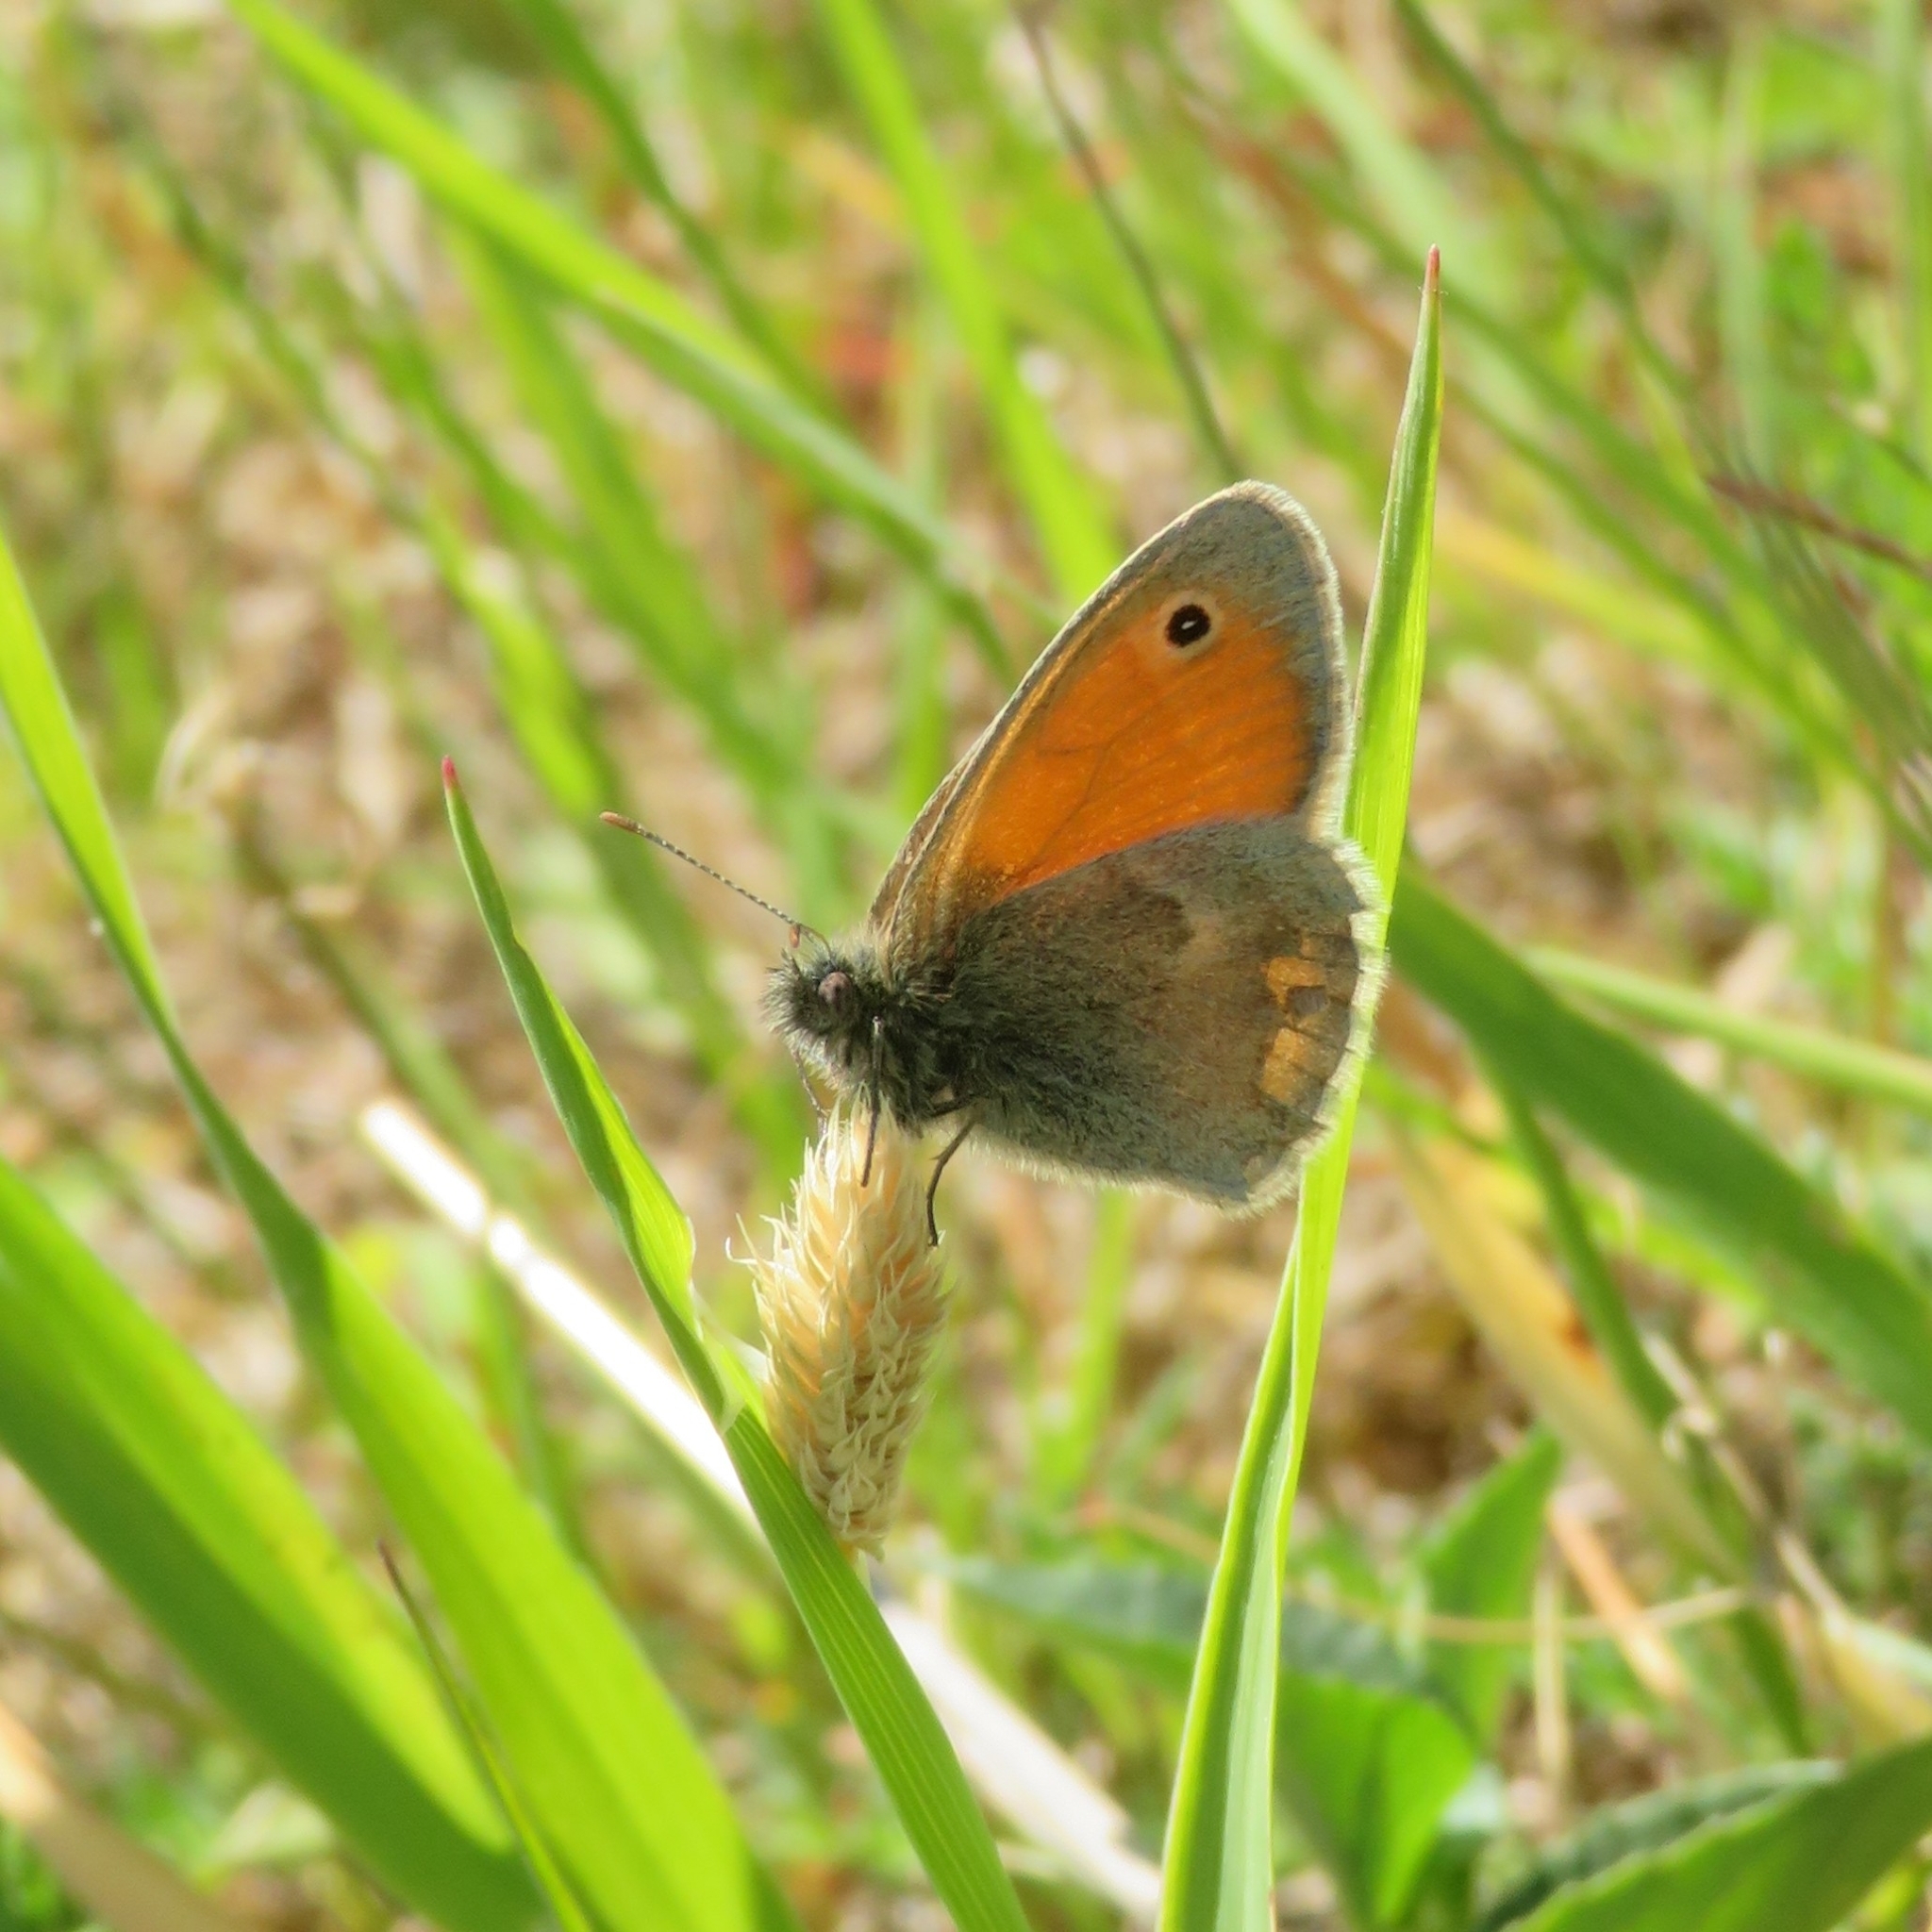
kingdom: Animalia
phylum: Arthropoda
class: Insecta
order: Lepidoptera
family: Nymphalidae
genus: Coenonympha
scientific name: Coenonympha pamphilus
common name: Small heath
